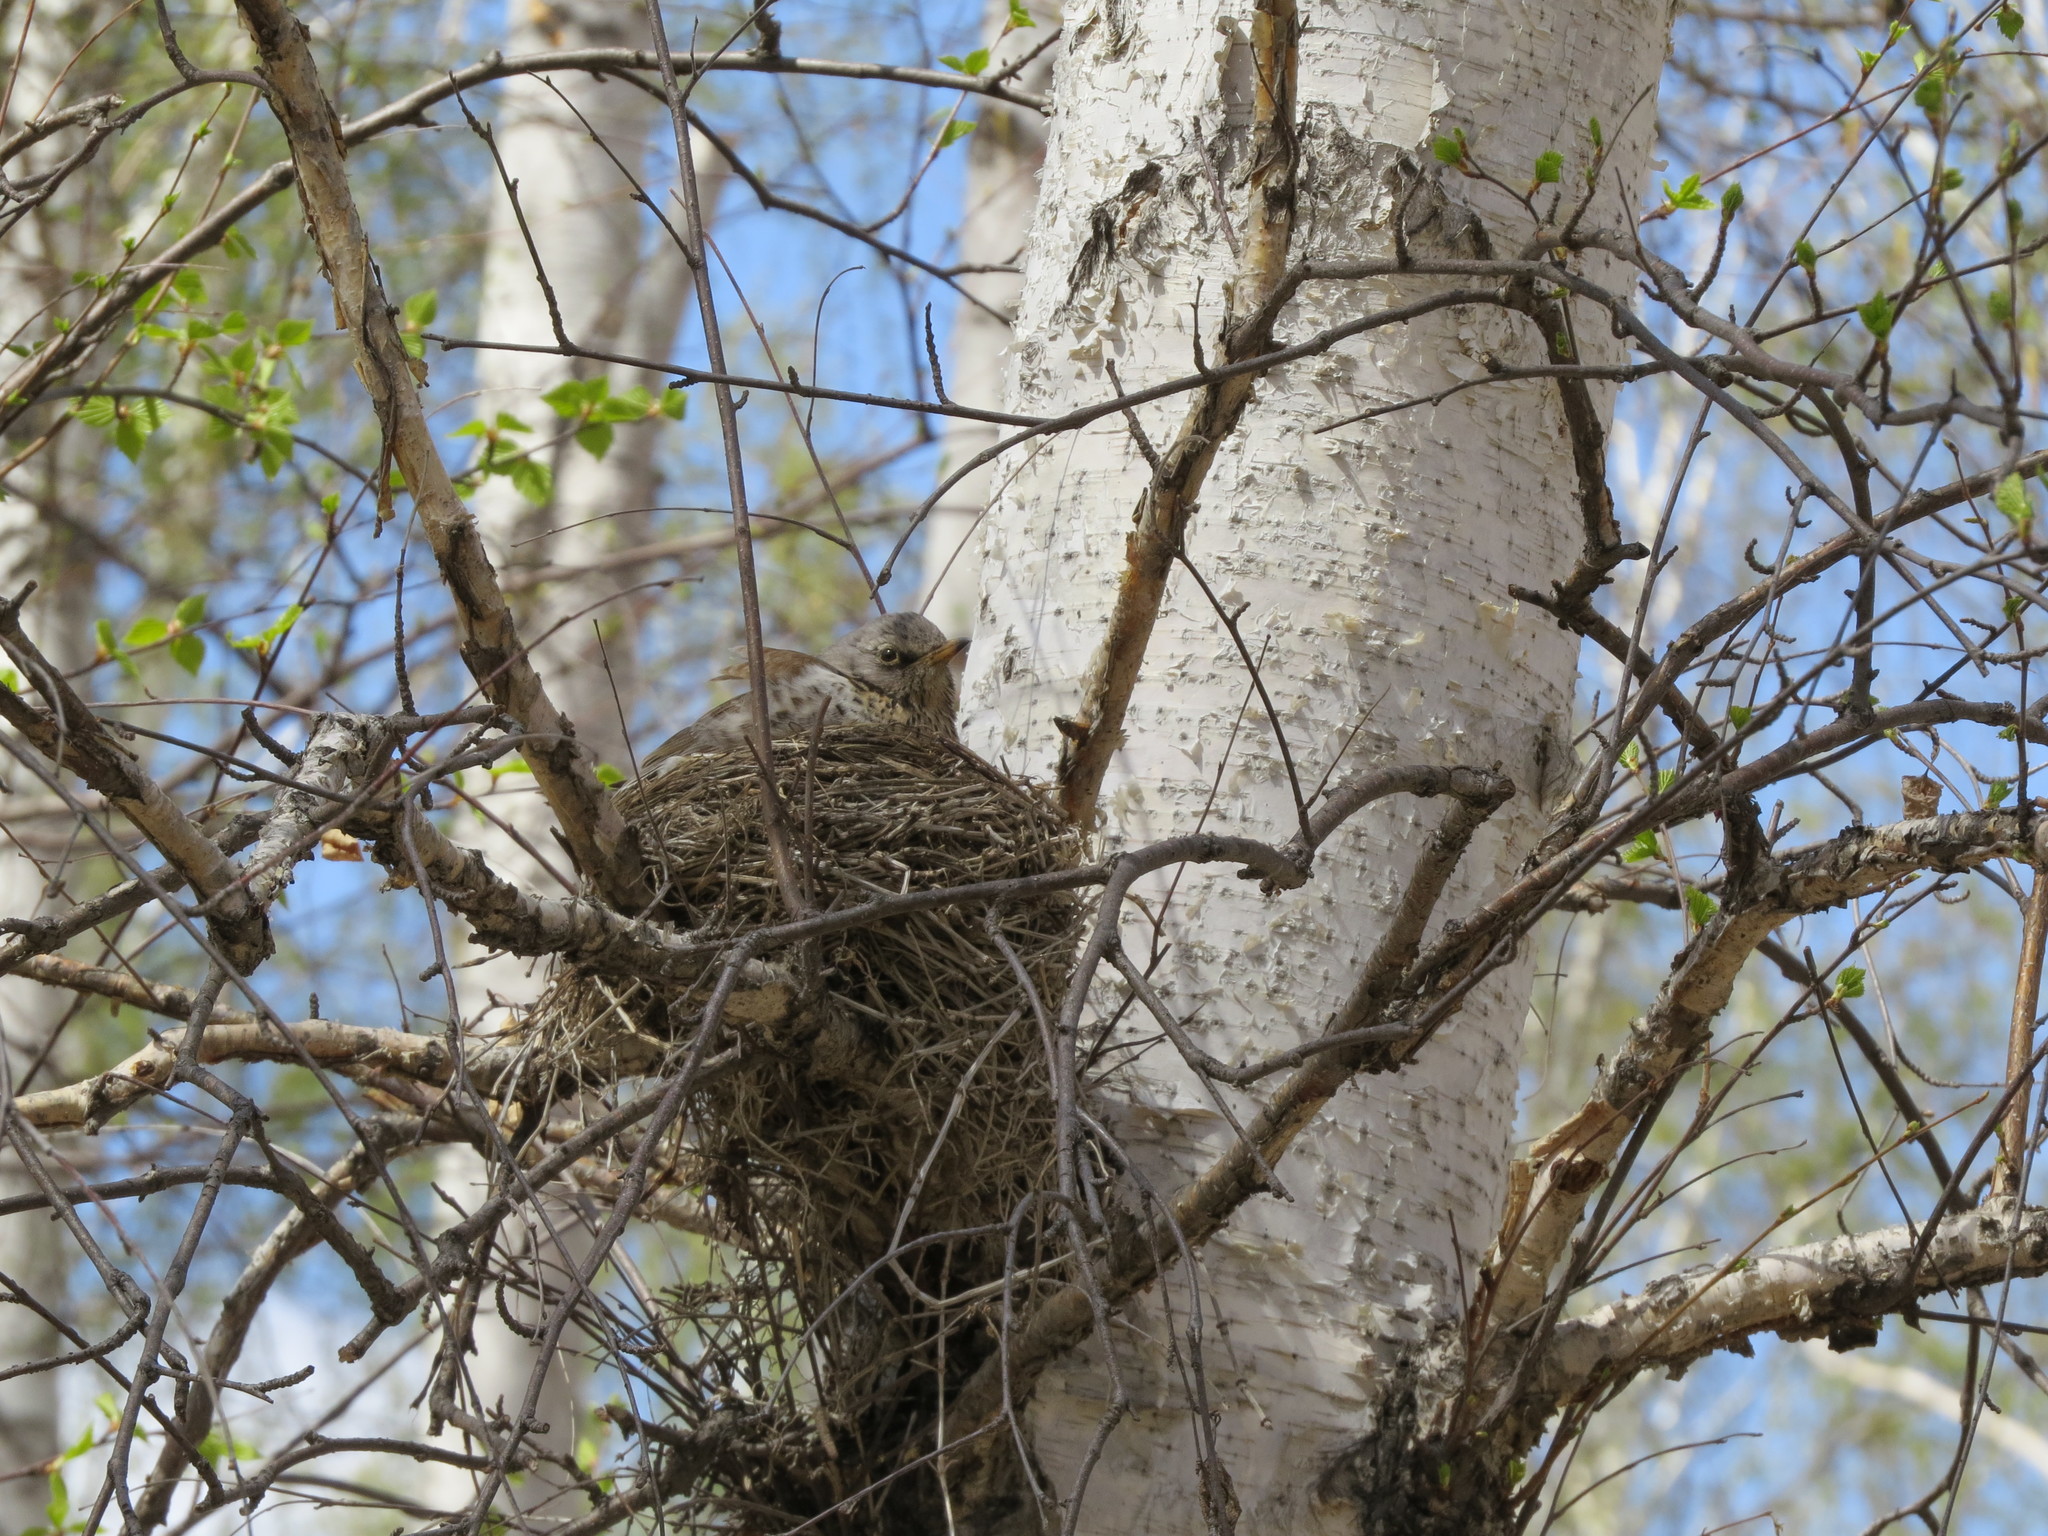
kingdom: Animalia
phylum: Chordata
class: Aves
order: Passeriformes
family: Turdidae
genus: Turdus
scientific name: Turdus pilaris
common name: Fieldfare
